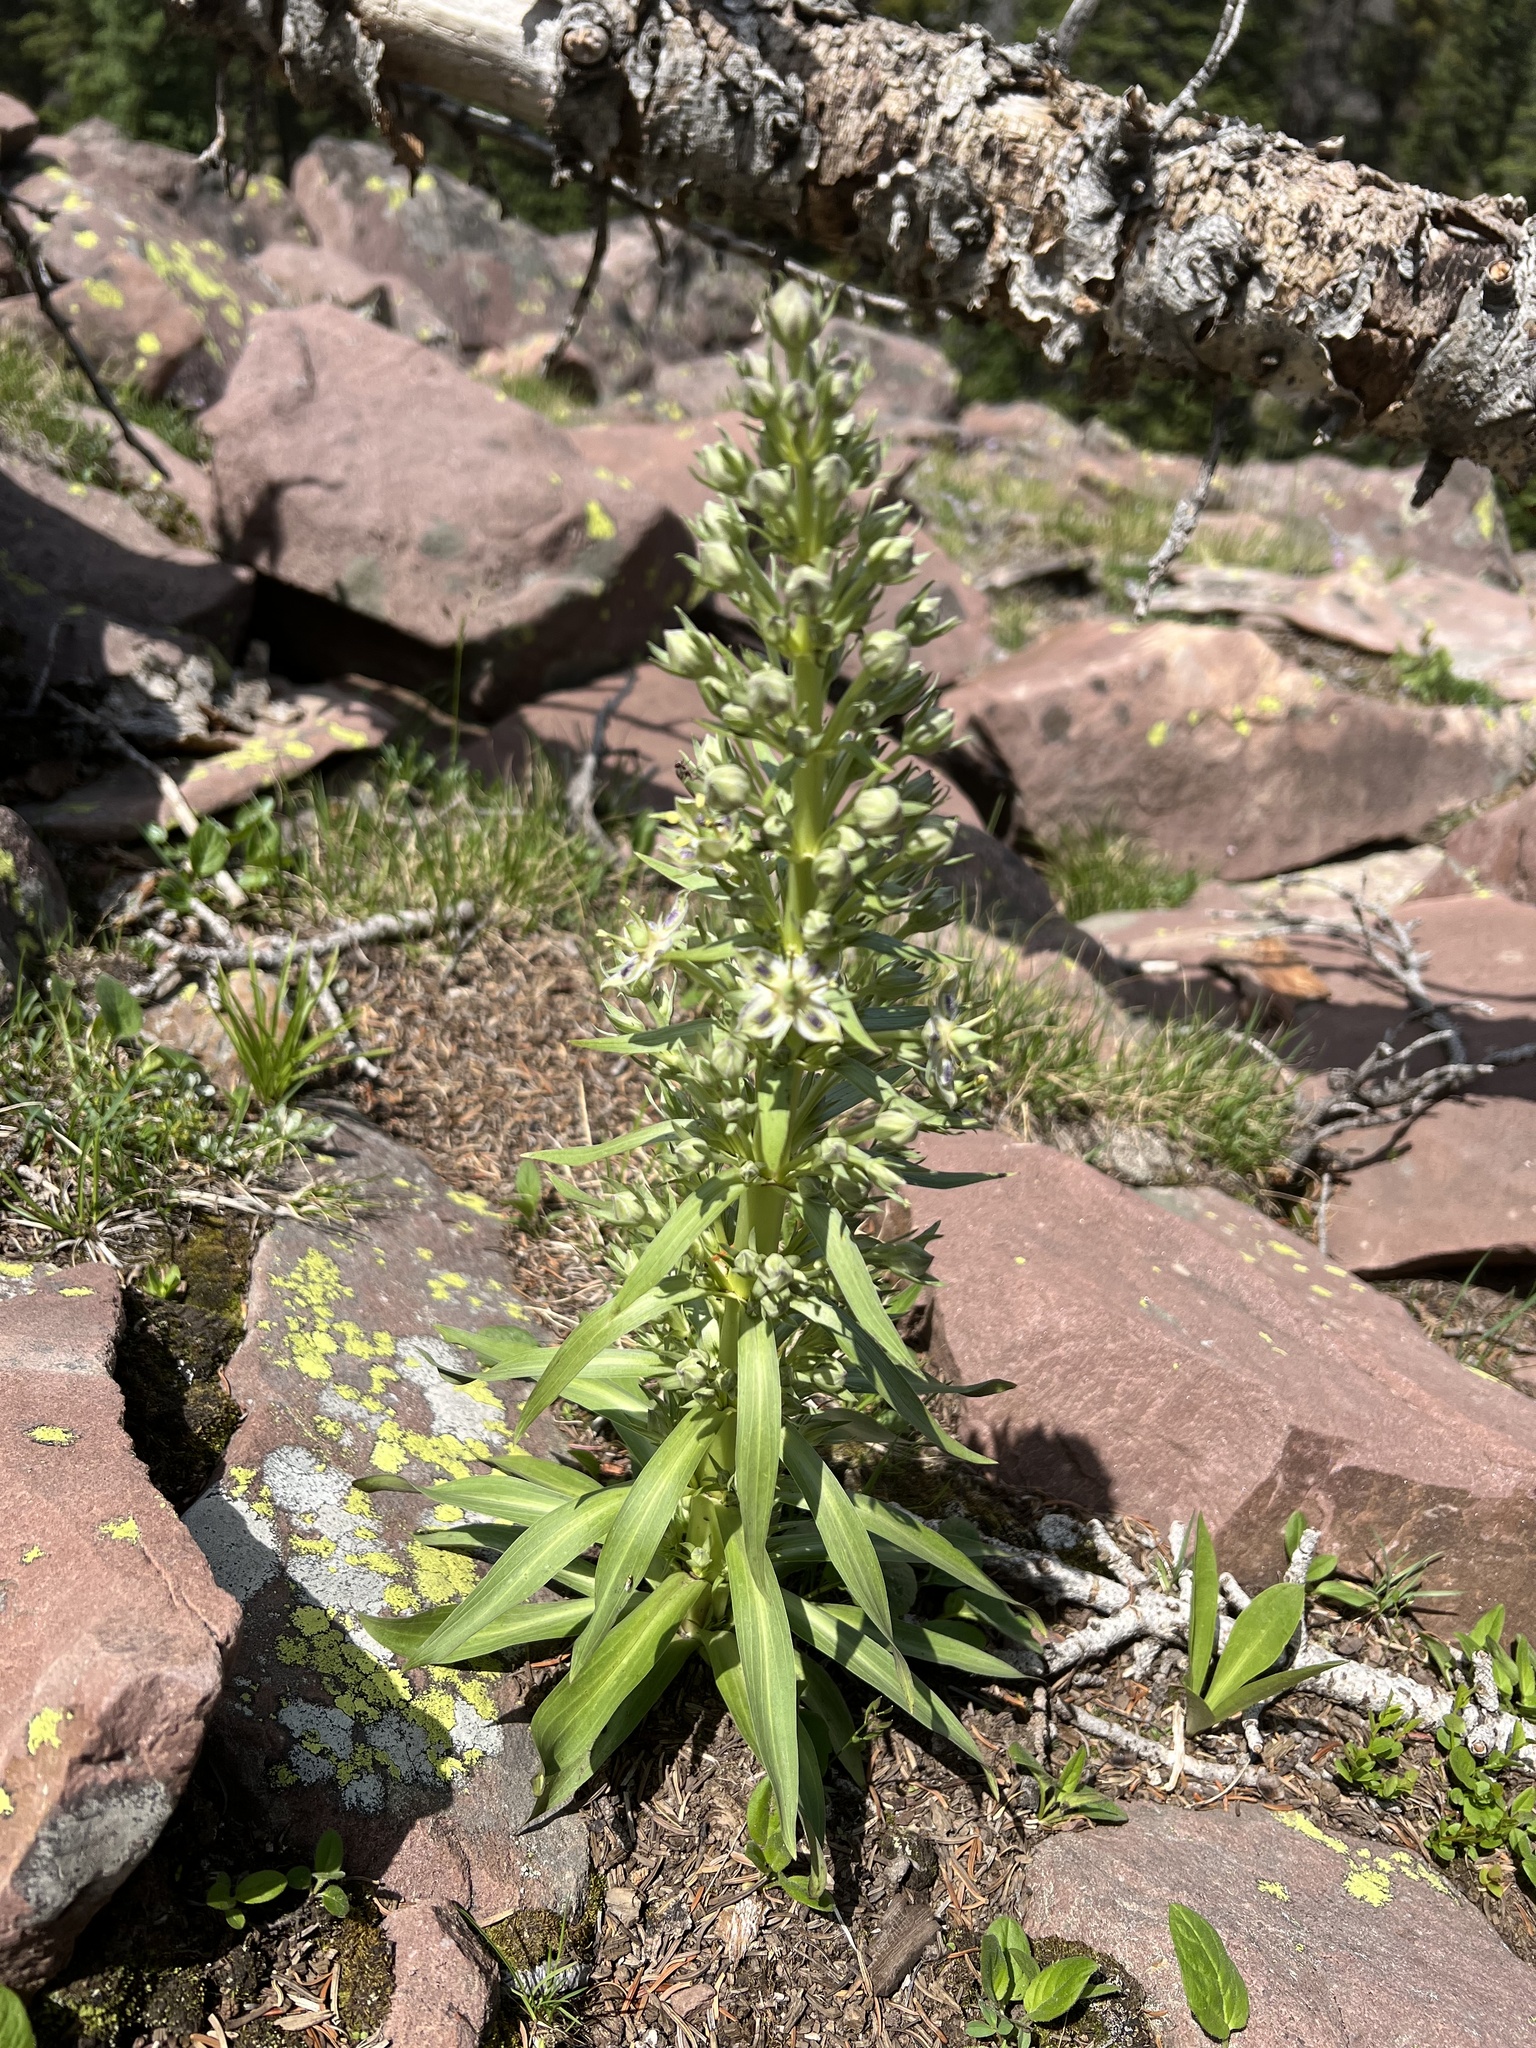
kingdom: Plantae
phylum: Tracheophyta
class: Magnoliopsida
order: Gentianales
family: Gentianaceae
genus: Frasera
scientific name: Frasera speciosa
